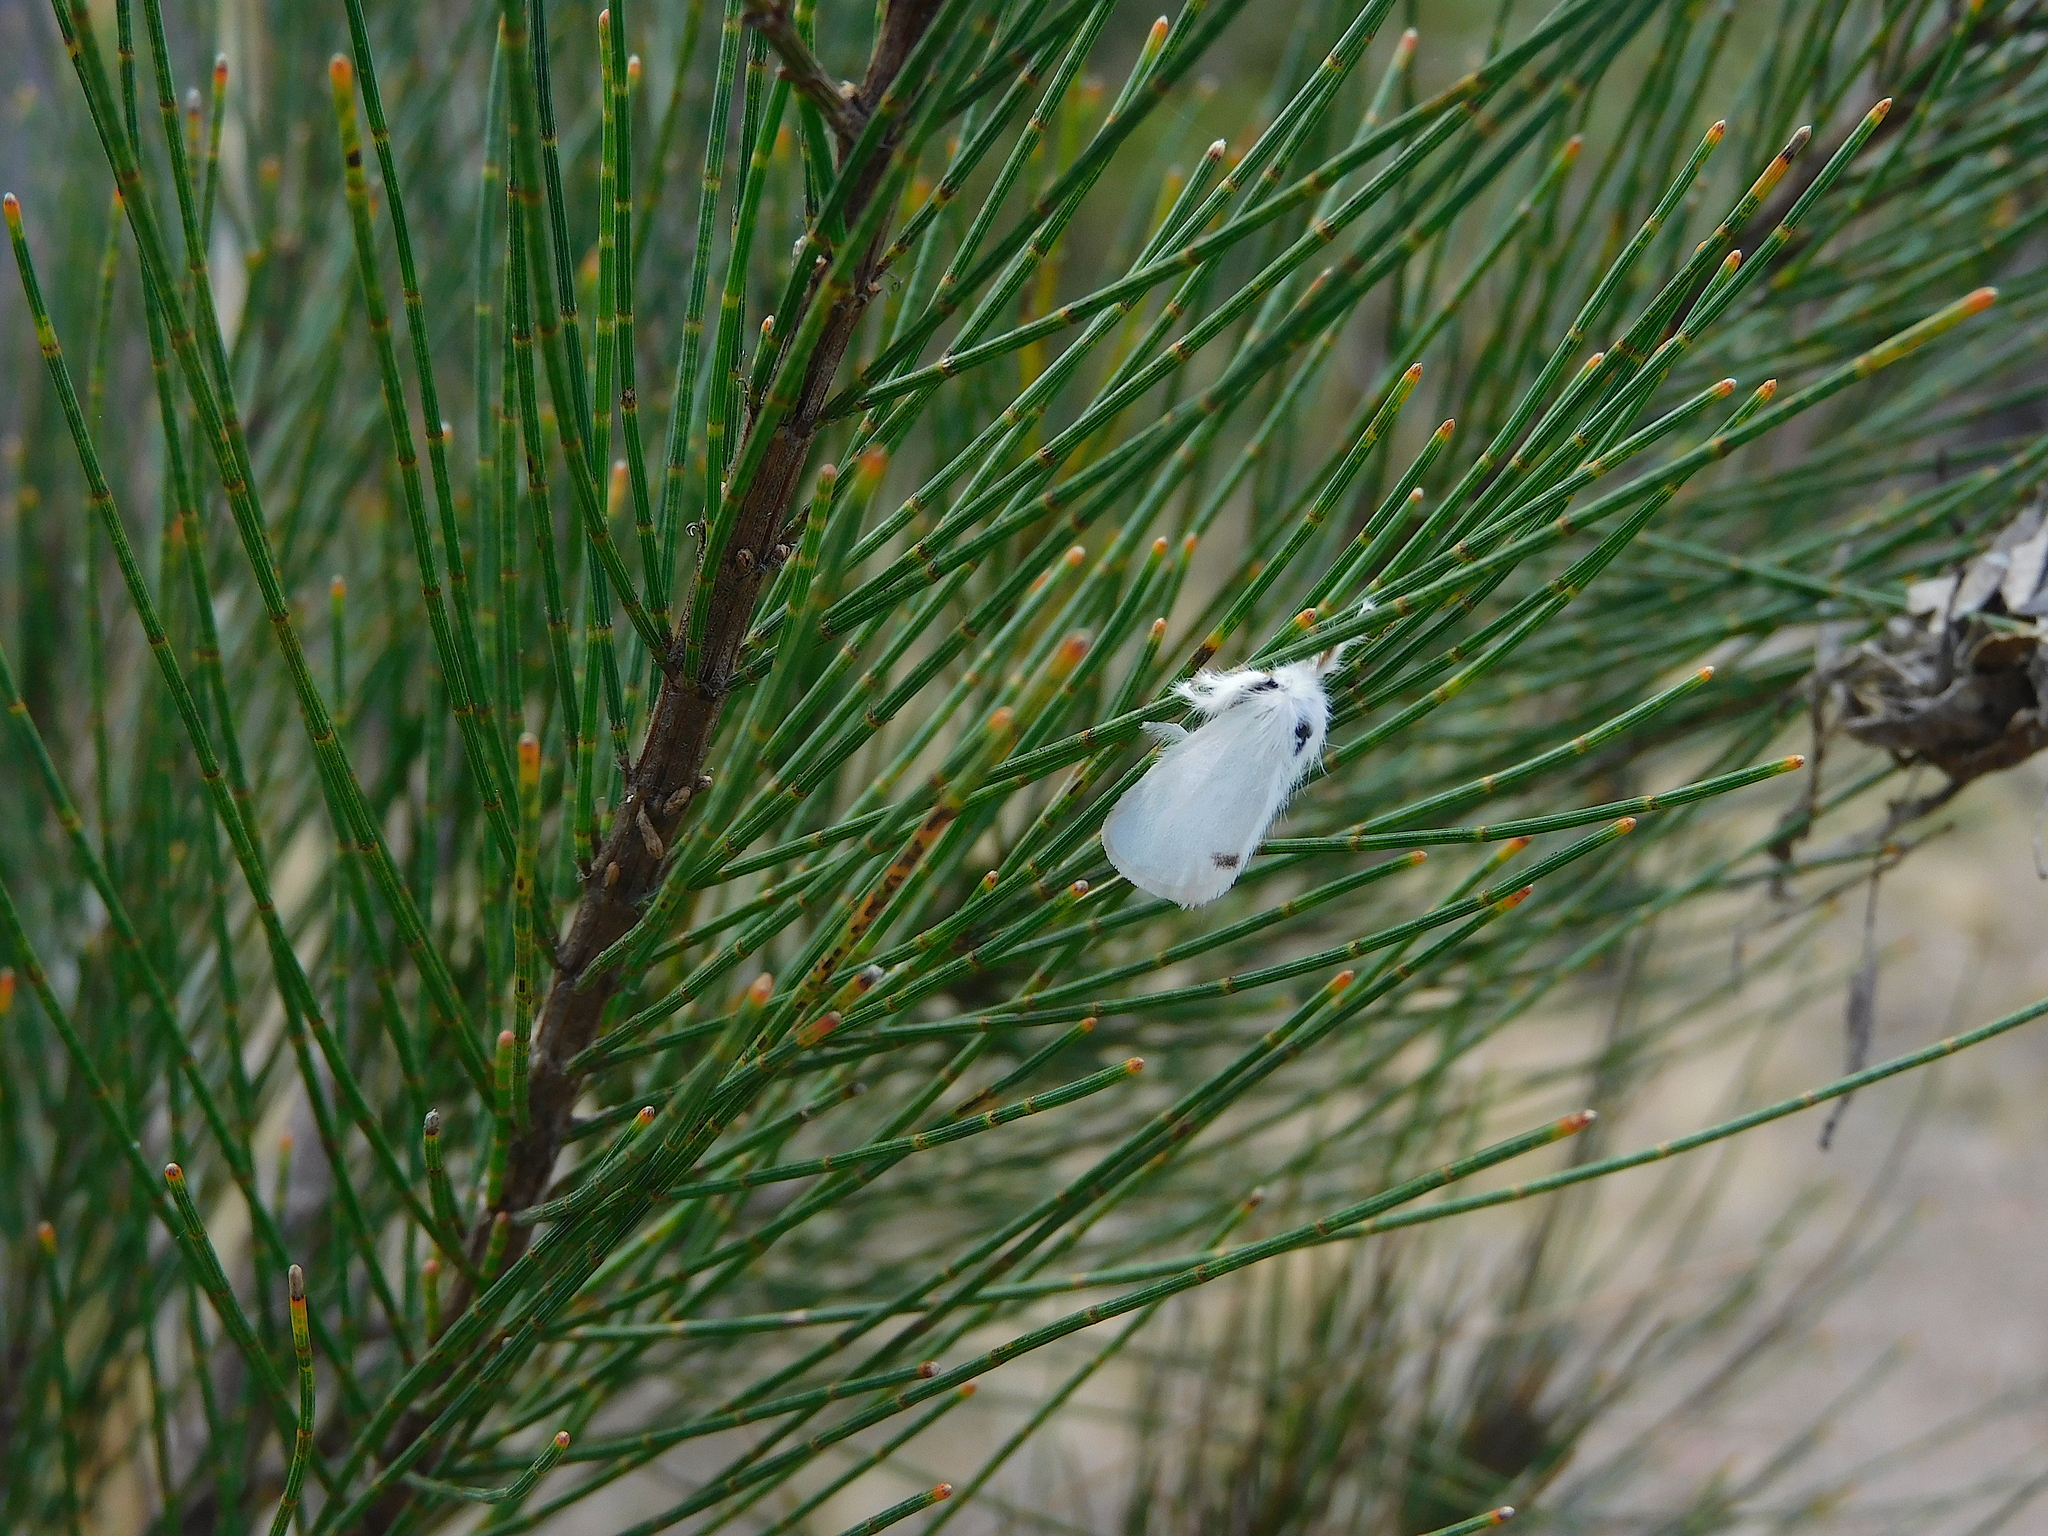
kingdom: Animalia
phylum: Arthropoda
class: Insecta
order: Lepidoptera
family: Erebidae
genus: Acyphas
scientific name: Acyphas semiochrea
